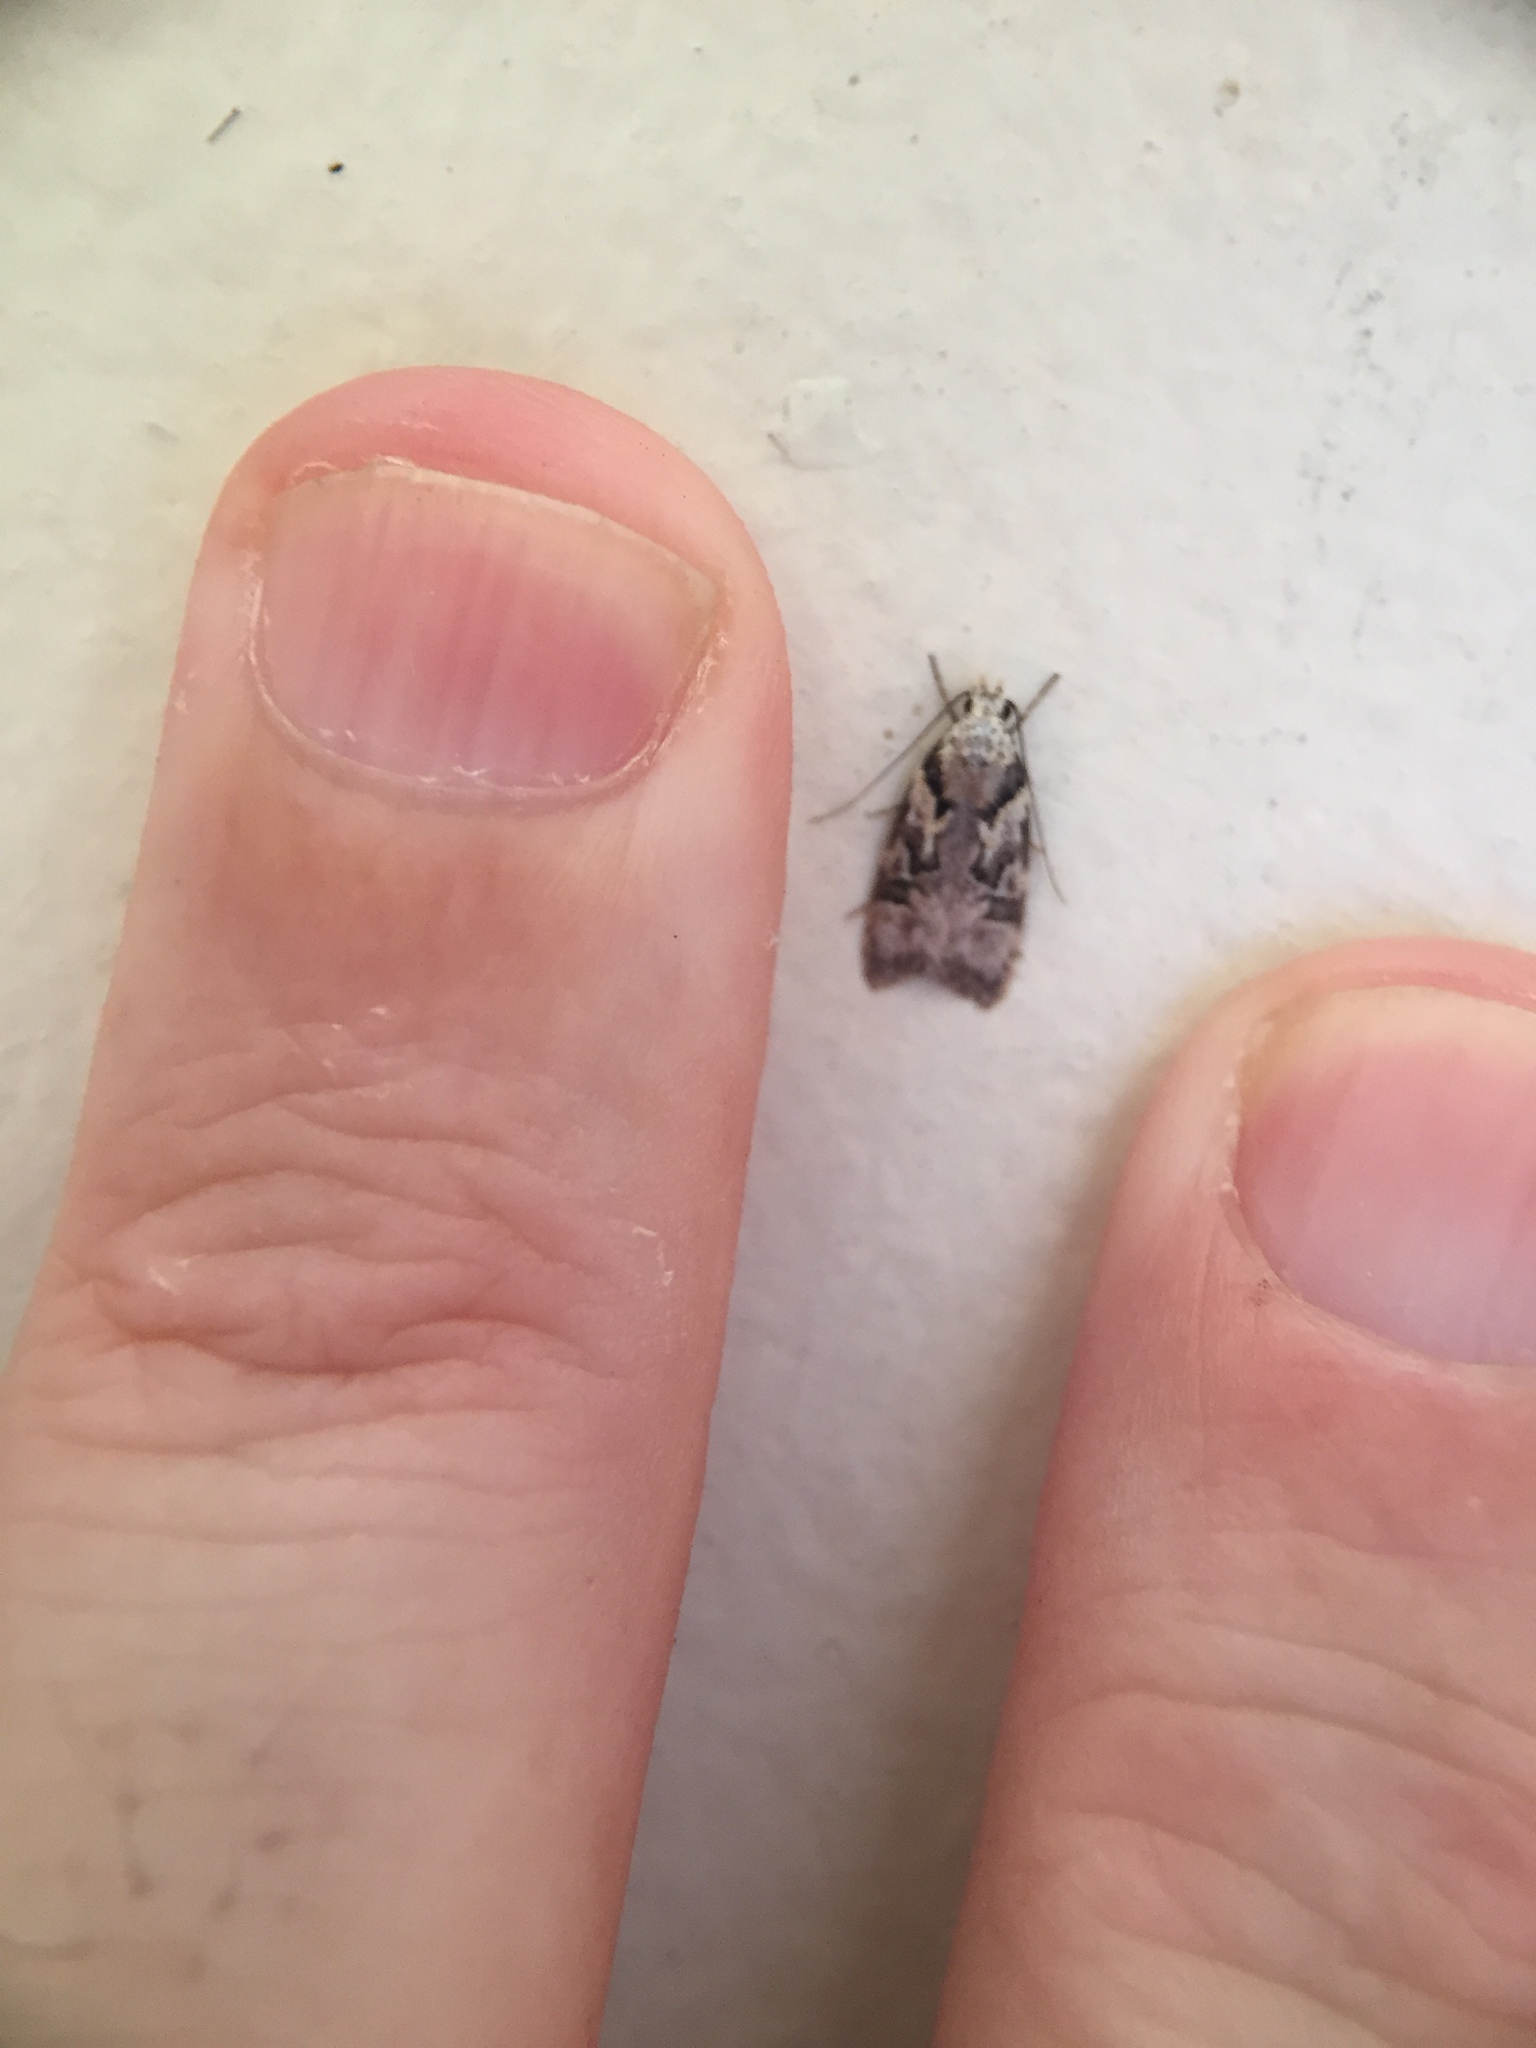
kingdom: Animalia
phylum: Arthropoda
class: Insecta
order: Lepidoptera
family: Oecophoridae
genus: Izatha
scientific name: Izatha epiphanes
